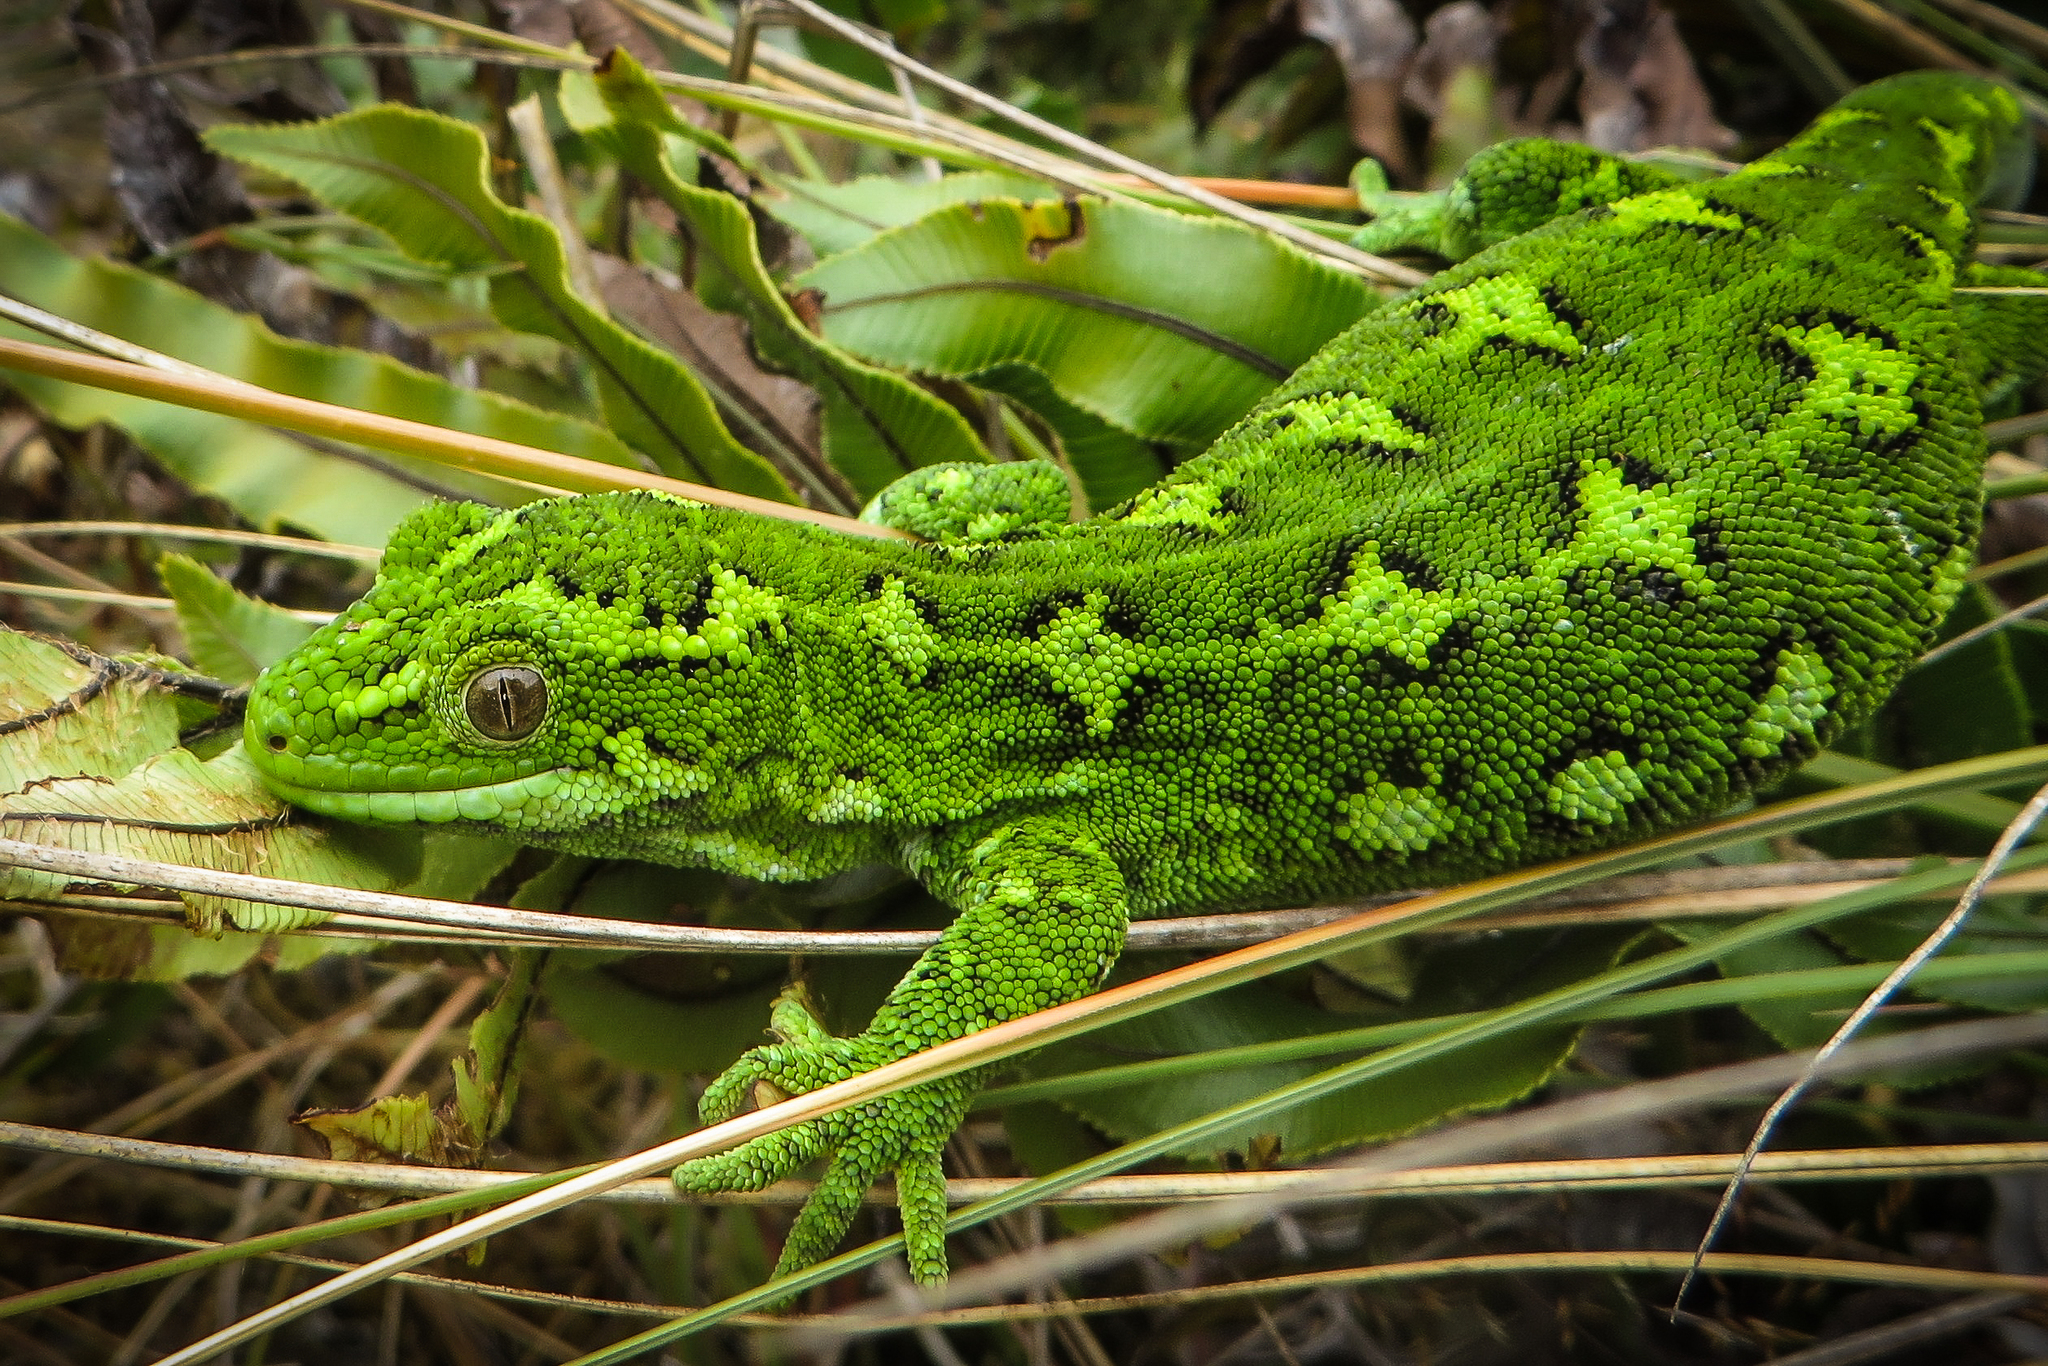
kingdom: Animalia
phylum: Chordata
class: Squamata
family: Diplodactylidae
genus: Naultinus
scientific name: Naultinus gemmeus
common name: Jewelled gecko
